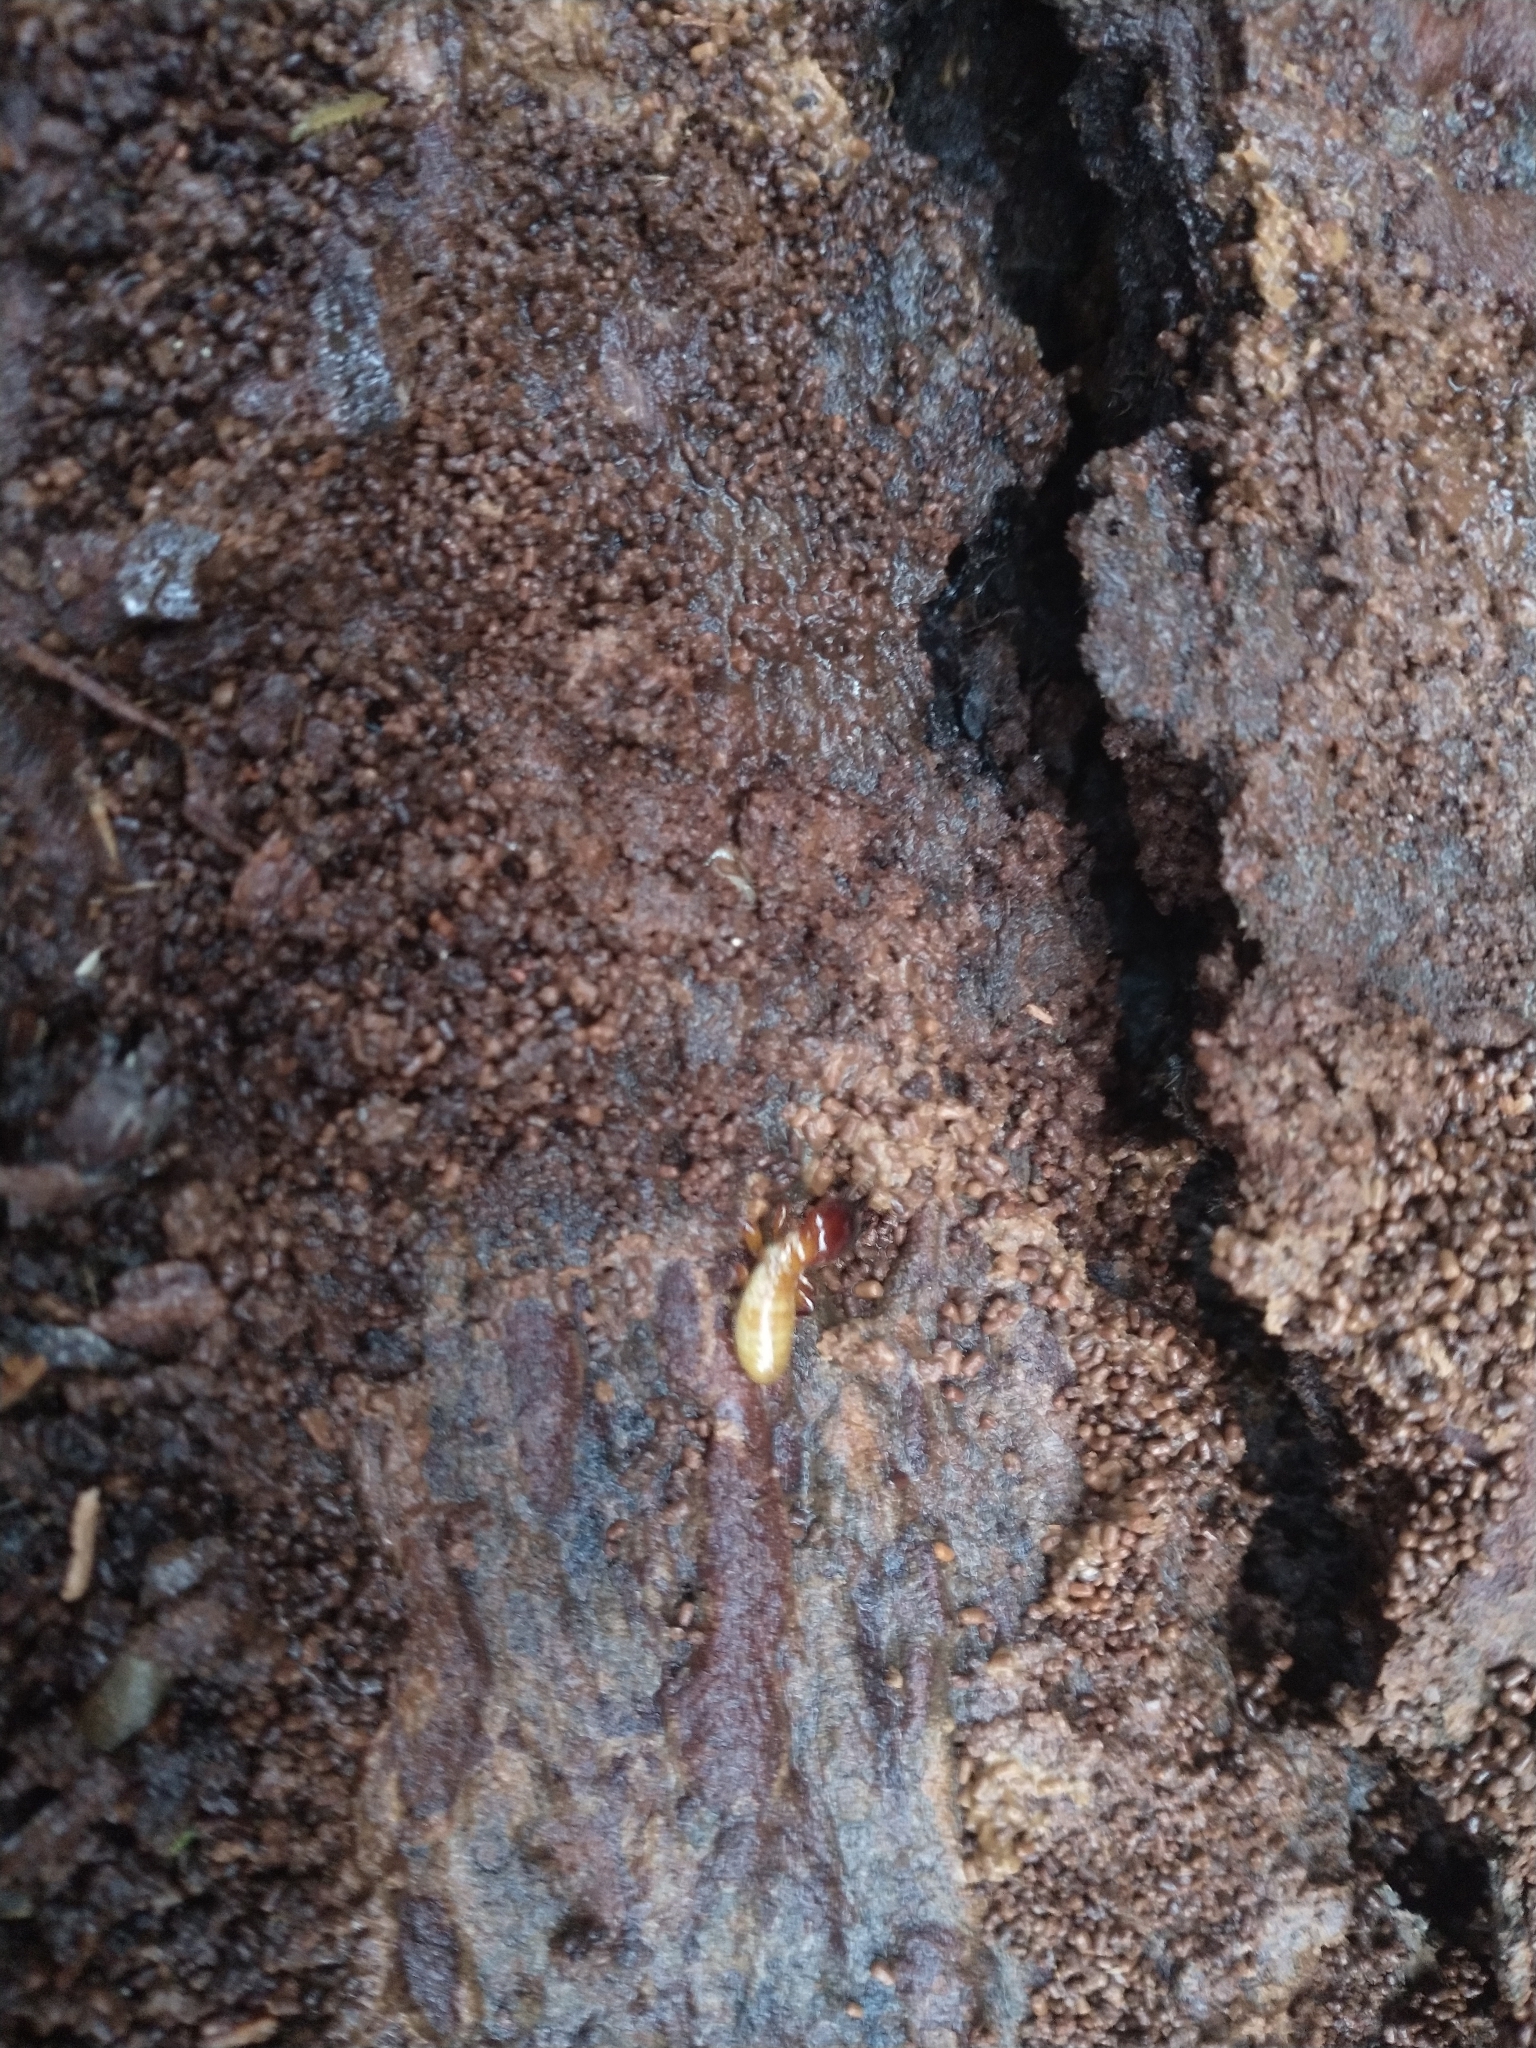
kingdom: Animalia
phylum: Arthropoda
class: Insecta
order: Blattodea
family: Archotermopsidae
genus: Zootermopsis
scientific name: Zootermopsis
